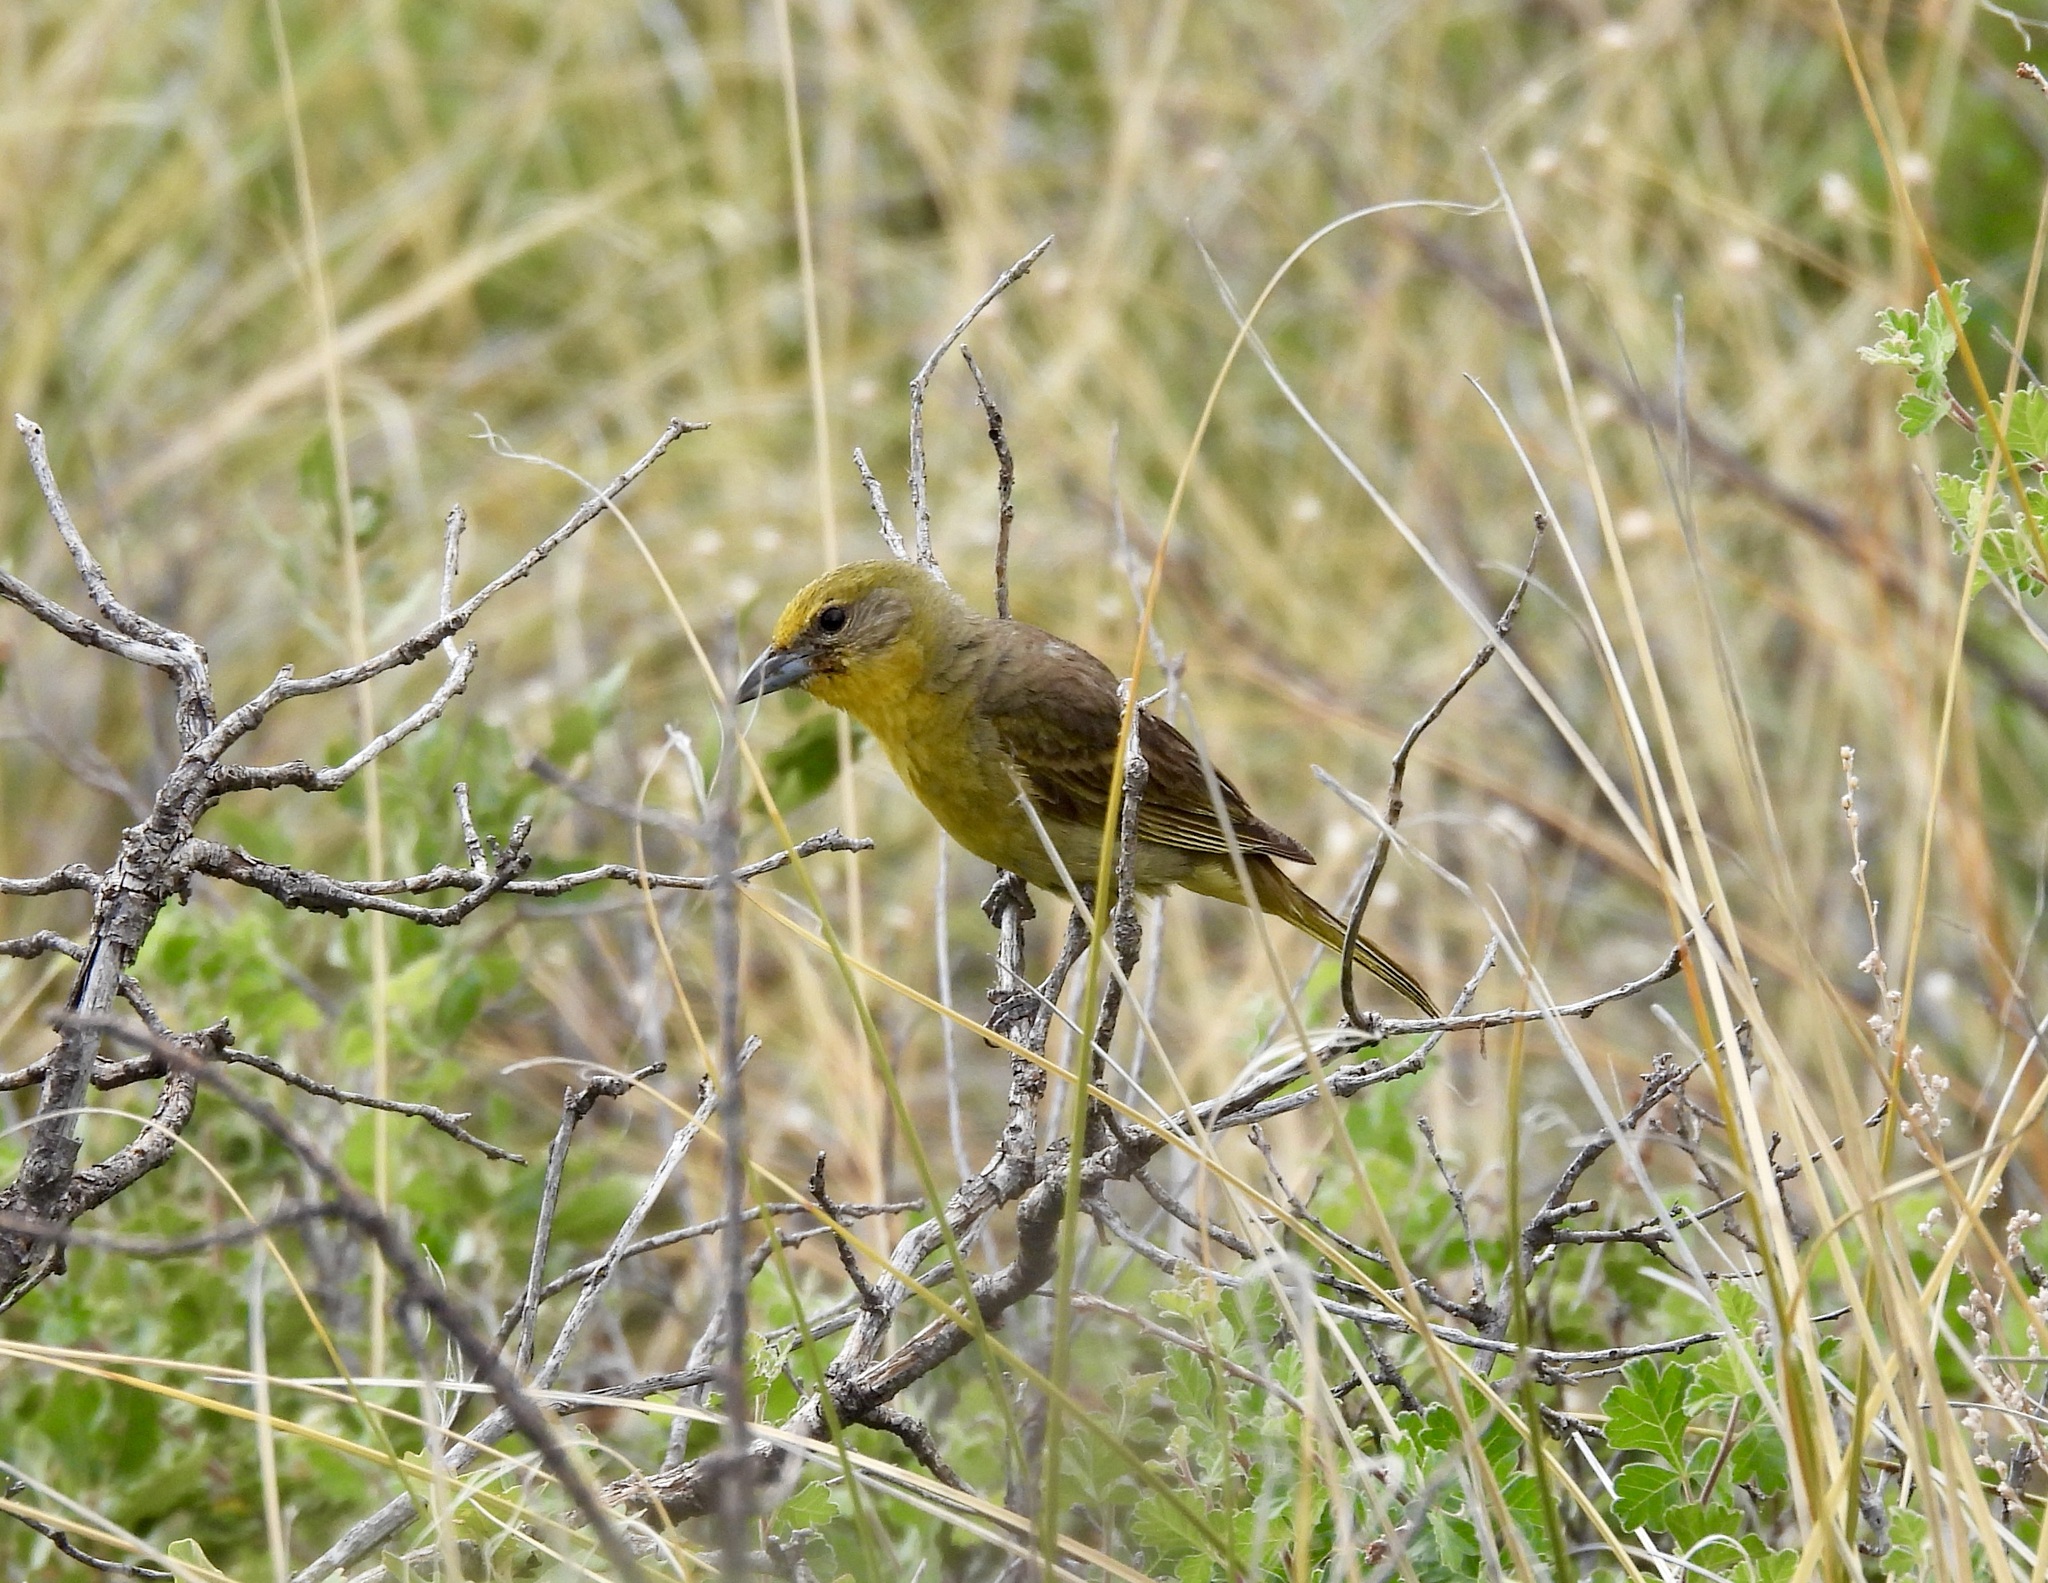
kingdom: Animalia
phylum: Chordata
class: Aves
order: Passeriformes
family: Cardinalidae
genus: Piranga
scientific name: Piranga flava
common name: Red tanager
